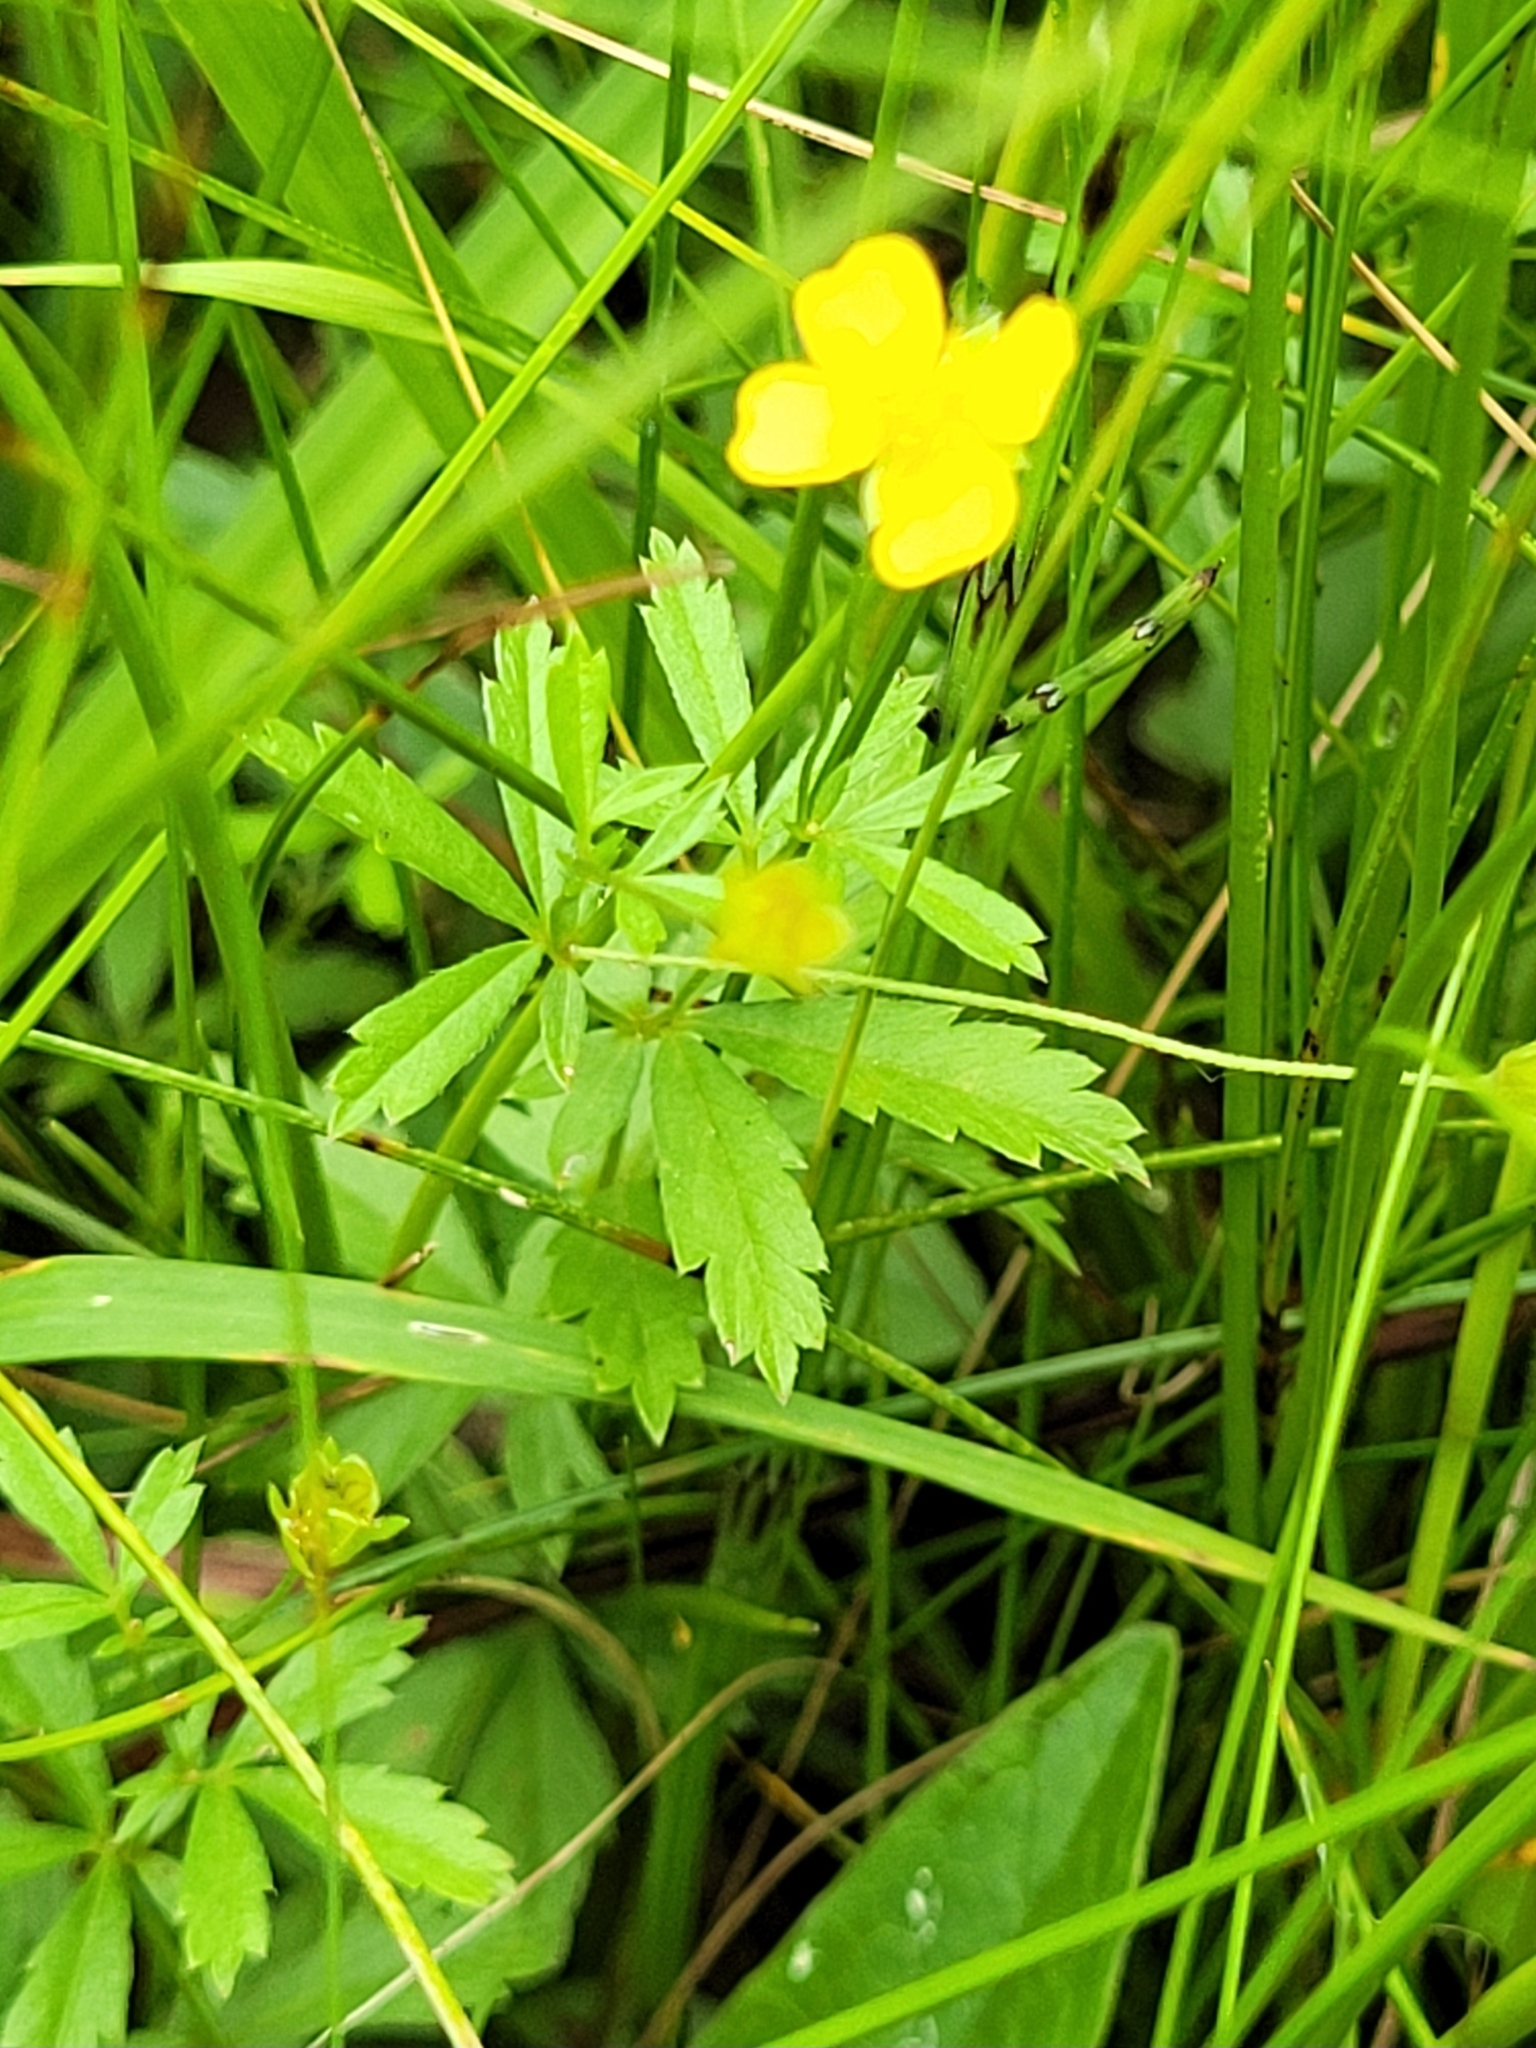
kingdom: Plantae
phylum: Tracheophyta
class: Magnoliopsida
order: Rosales
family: Rosaceae
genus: Potentilla
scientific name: Potentilla erecta
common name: Tormentil
